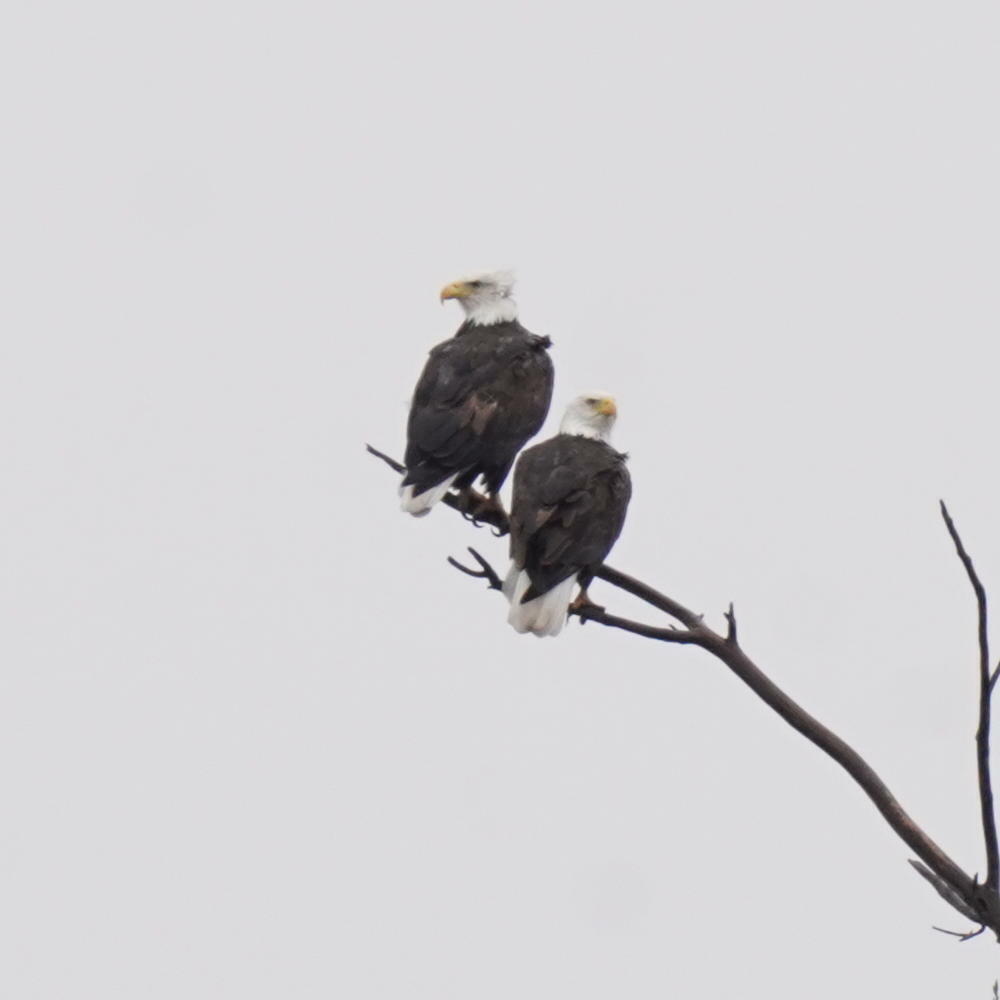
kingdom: Animalia
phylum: Chordata
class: Aves
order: Accipitriformes
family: Accipitridae
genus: Haliaeetus
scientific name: Haliaeetus leucocephalus
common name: Bald eagle
